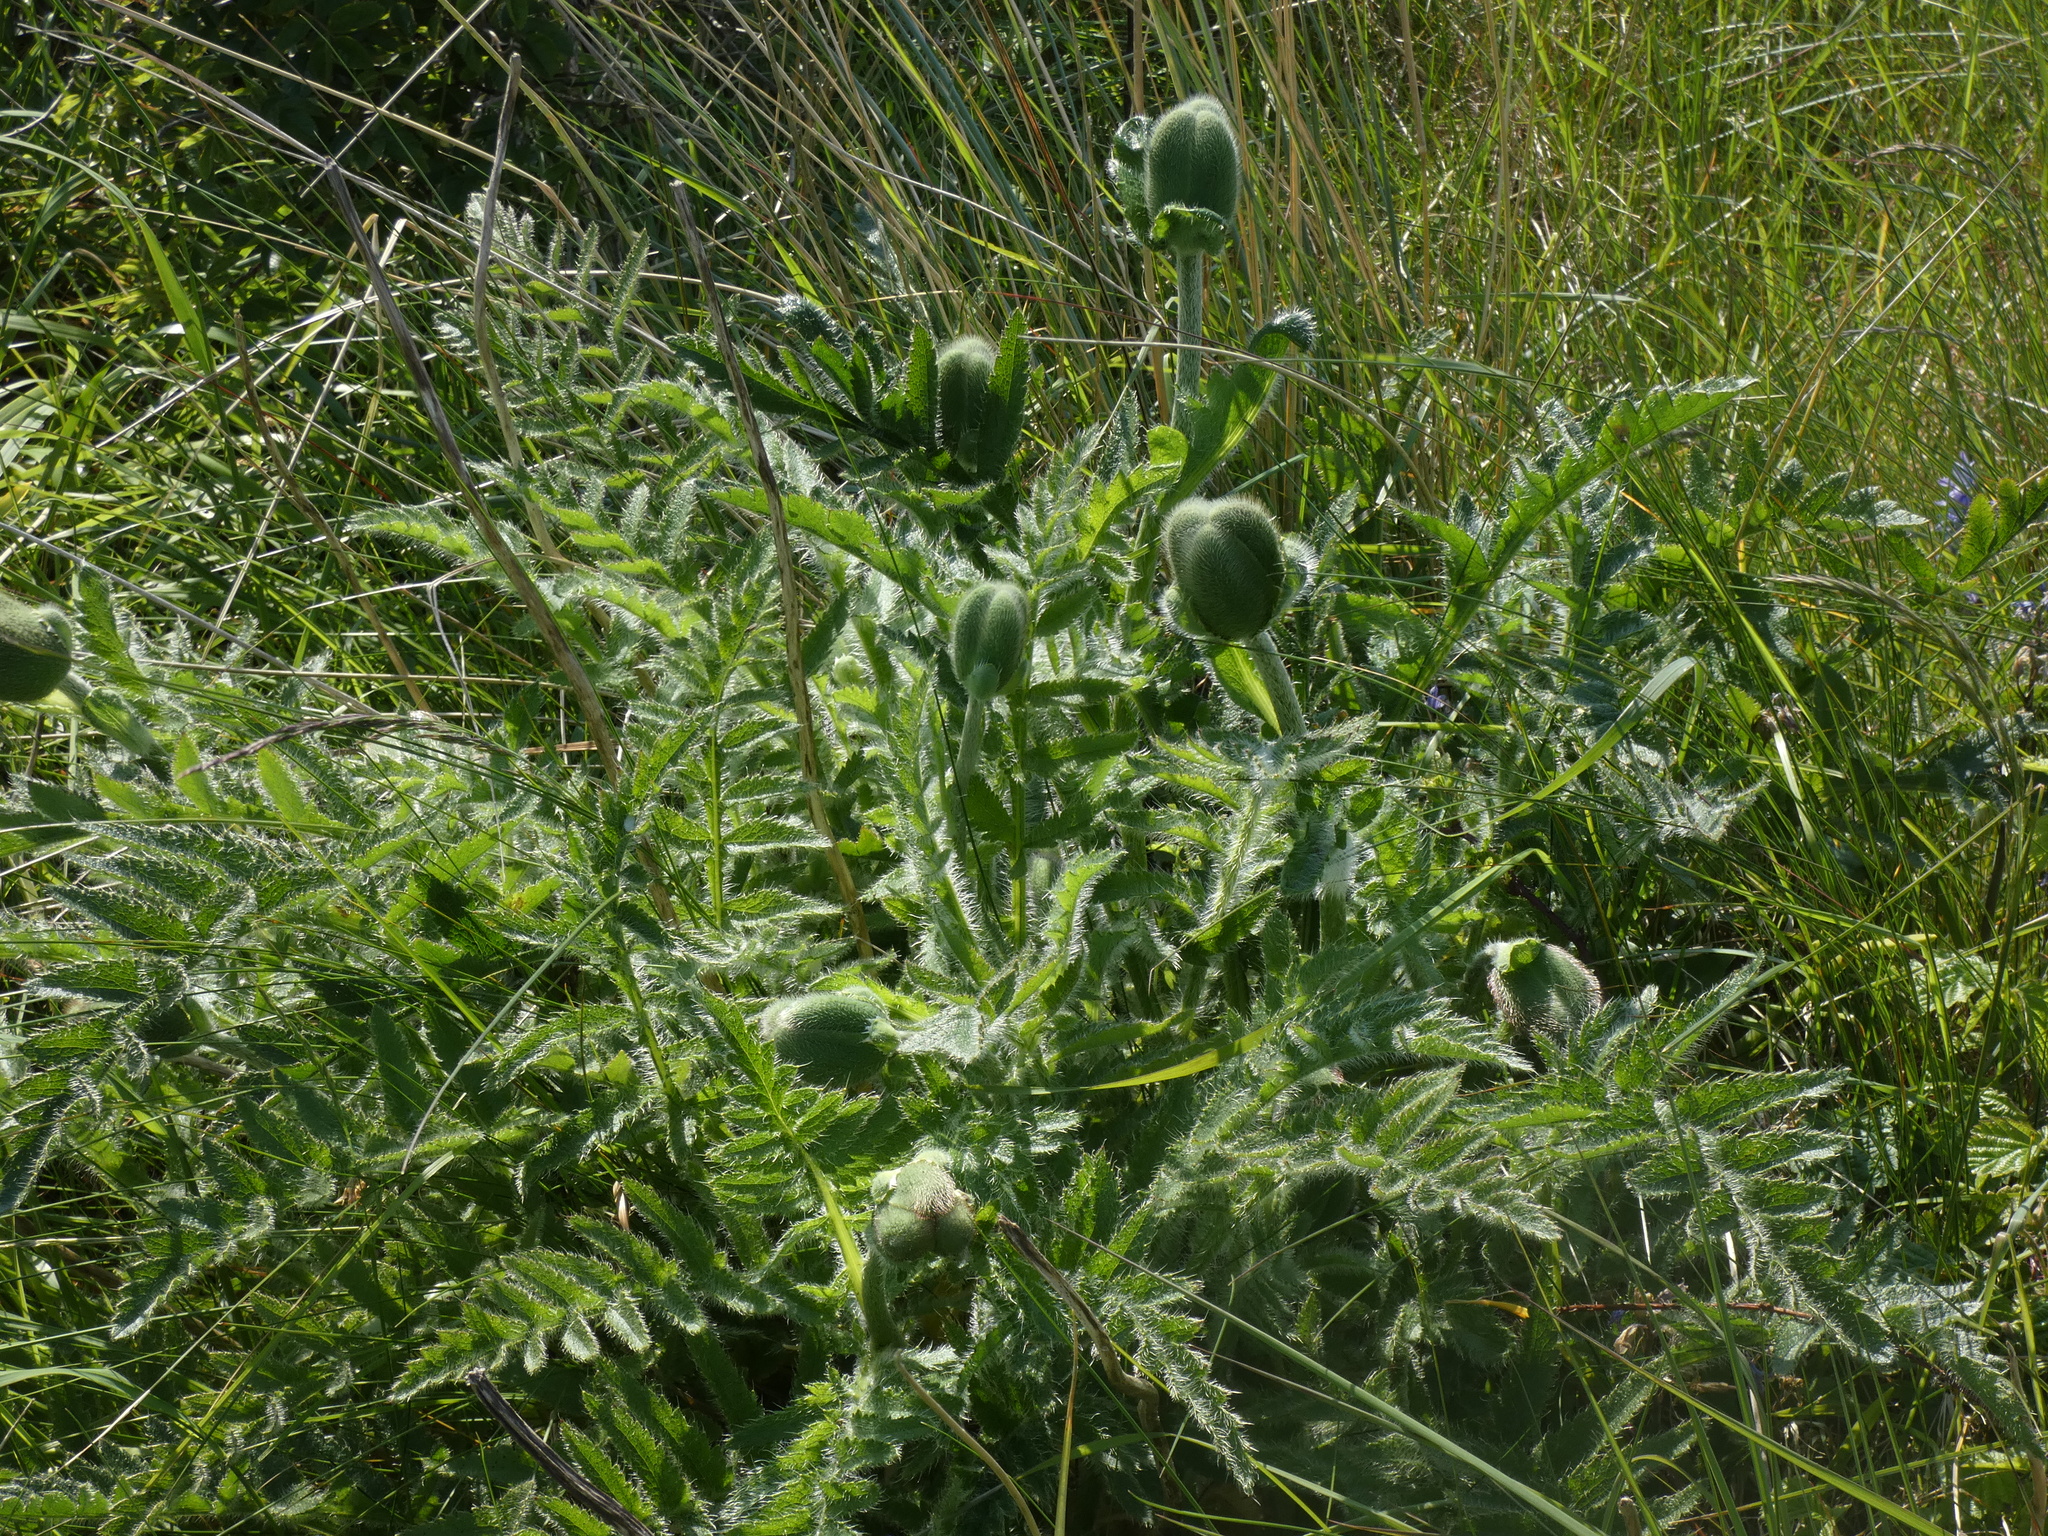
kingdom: Plantae
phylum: Tracheophyta
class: Magnoliopsida
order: Ranunculales
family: Papaveraceae
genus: Papaver
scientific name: Papaver orientale
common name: Oriental poppy
